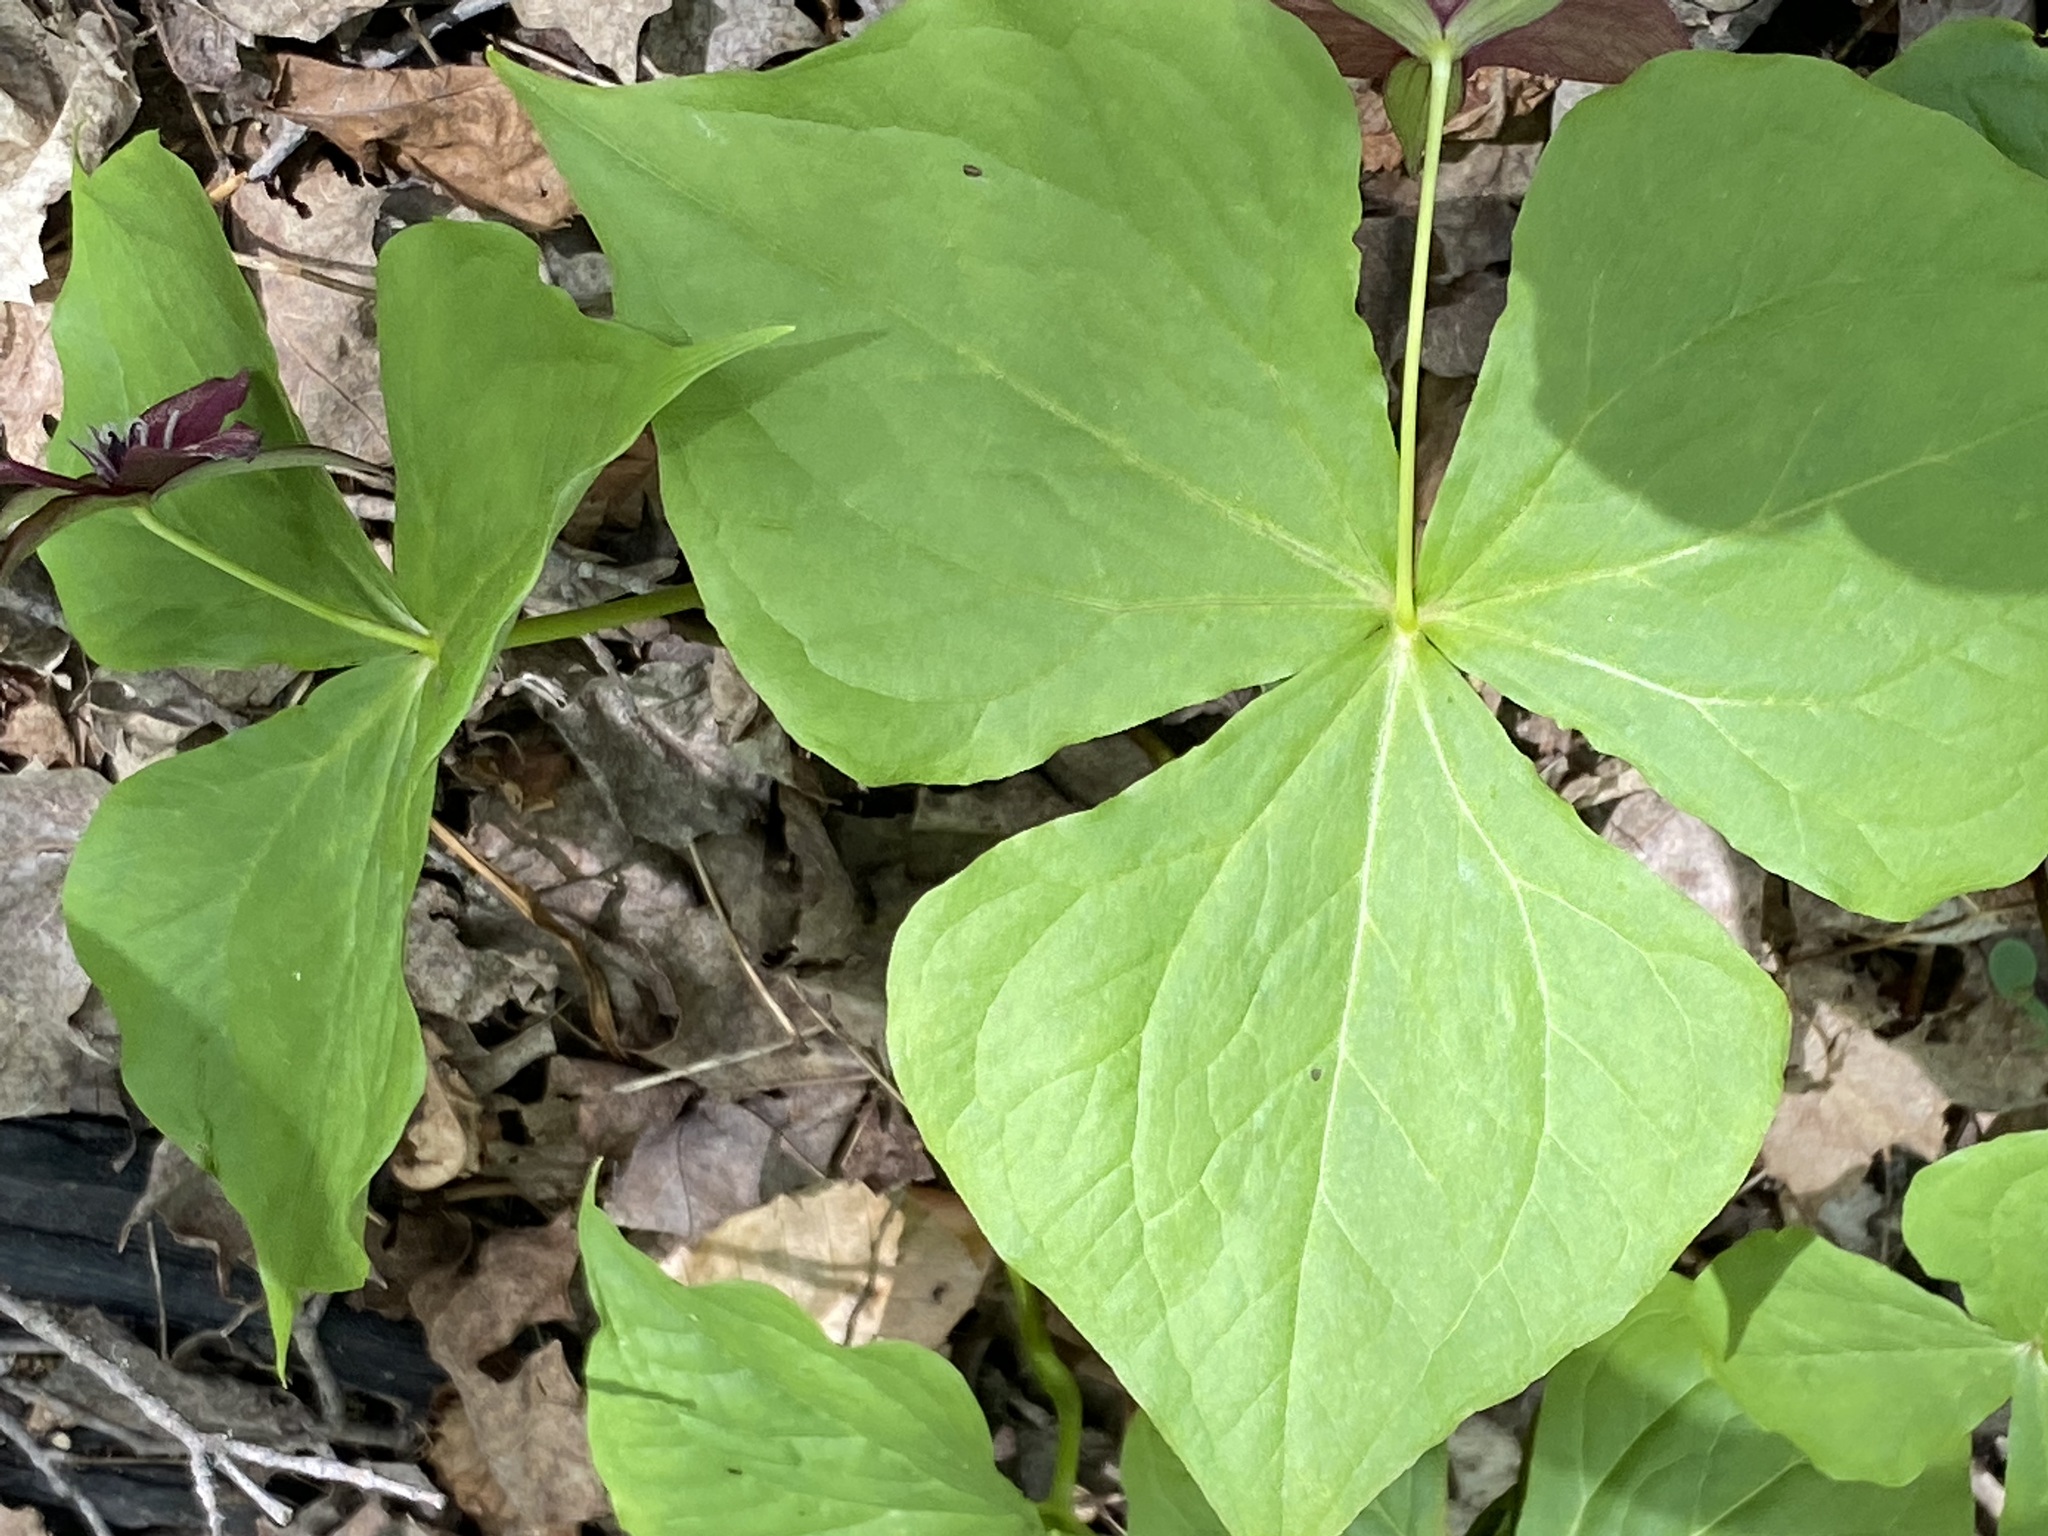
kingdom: Plantae
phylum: Tracheophyta
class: Liliopsida
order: Liliales
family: Melanthiaceae
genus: Trillium
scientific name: Trillium erectum
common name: Purple trillium
